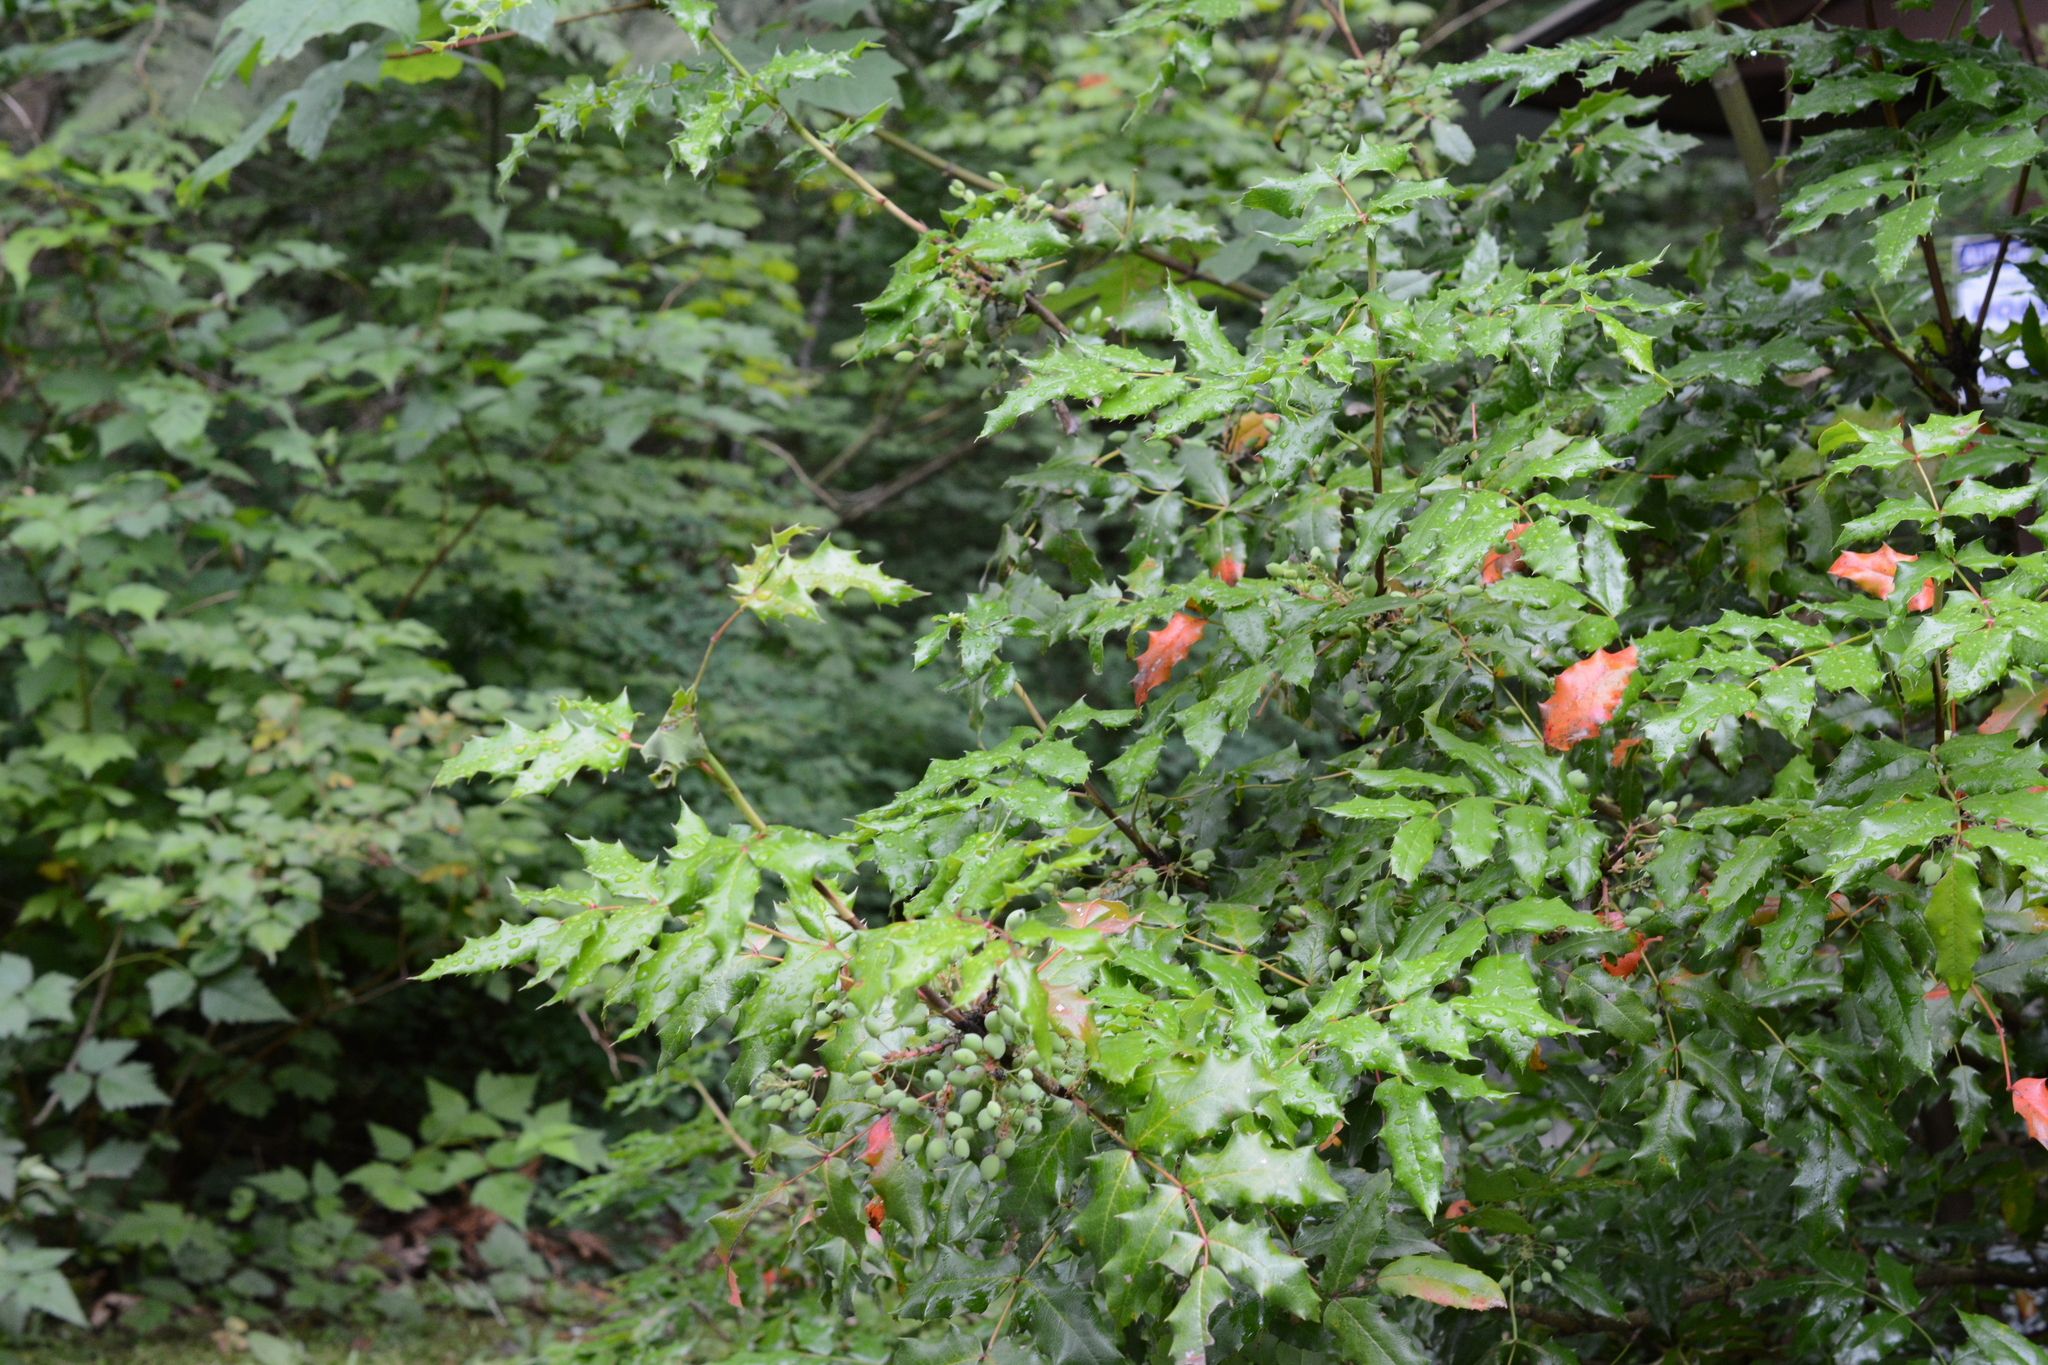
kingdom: Plantae
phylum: Tracheophyta
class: Magnoliopsida
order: Ranunculales
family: Berberidaceae
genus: Mahonia
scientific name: Mahonia aquifolium
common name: Oregon-grape
